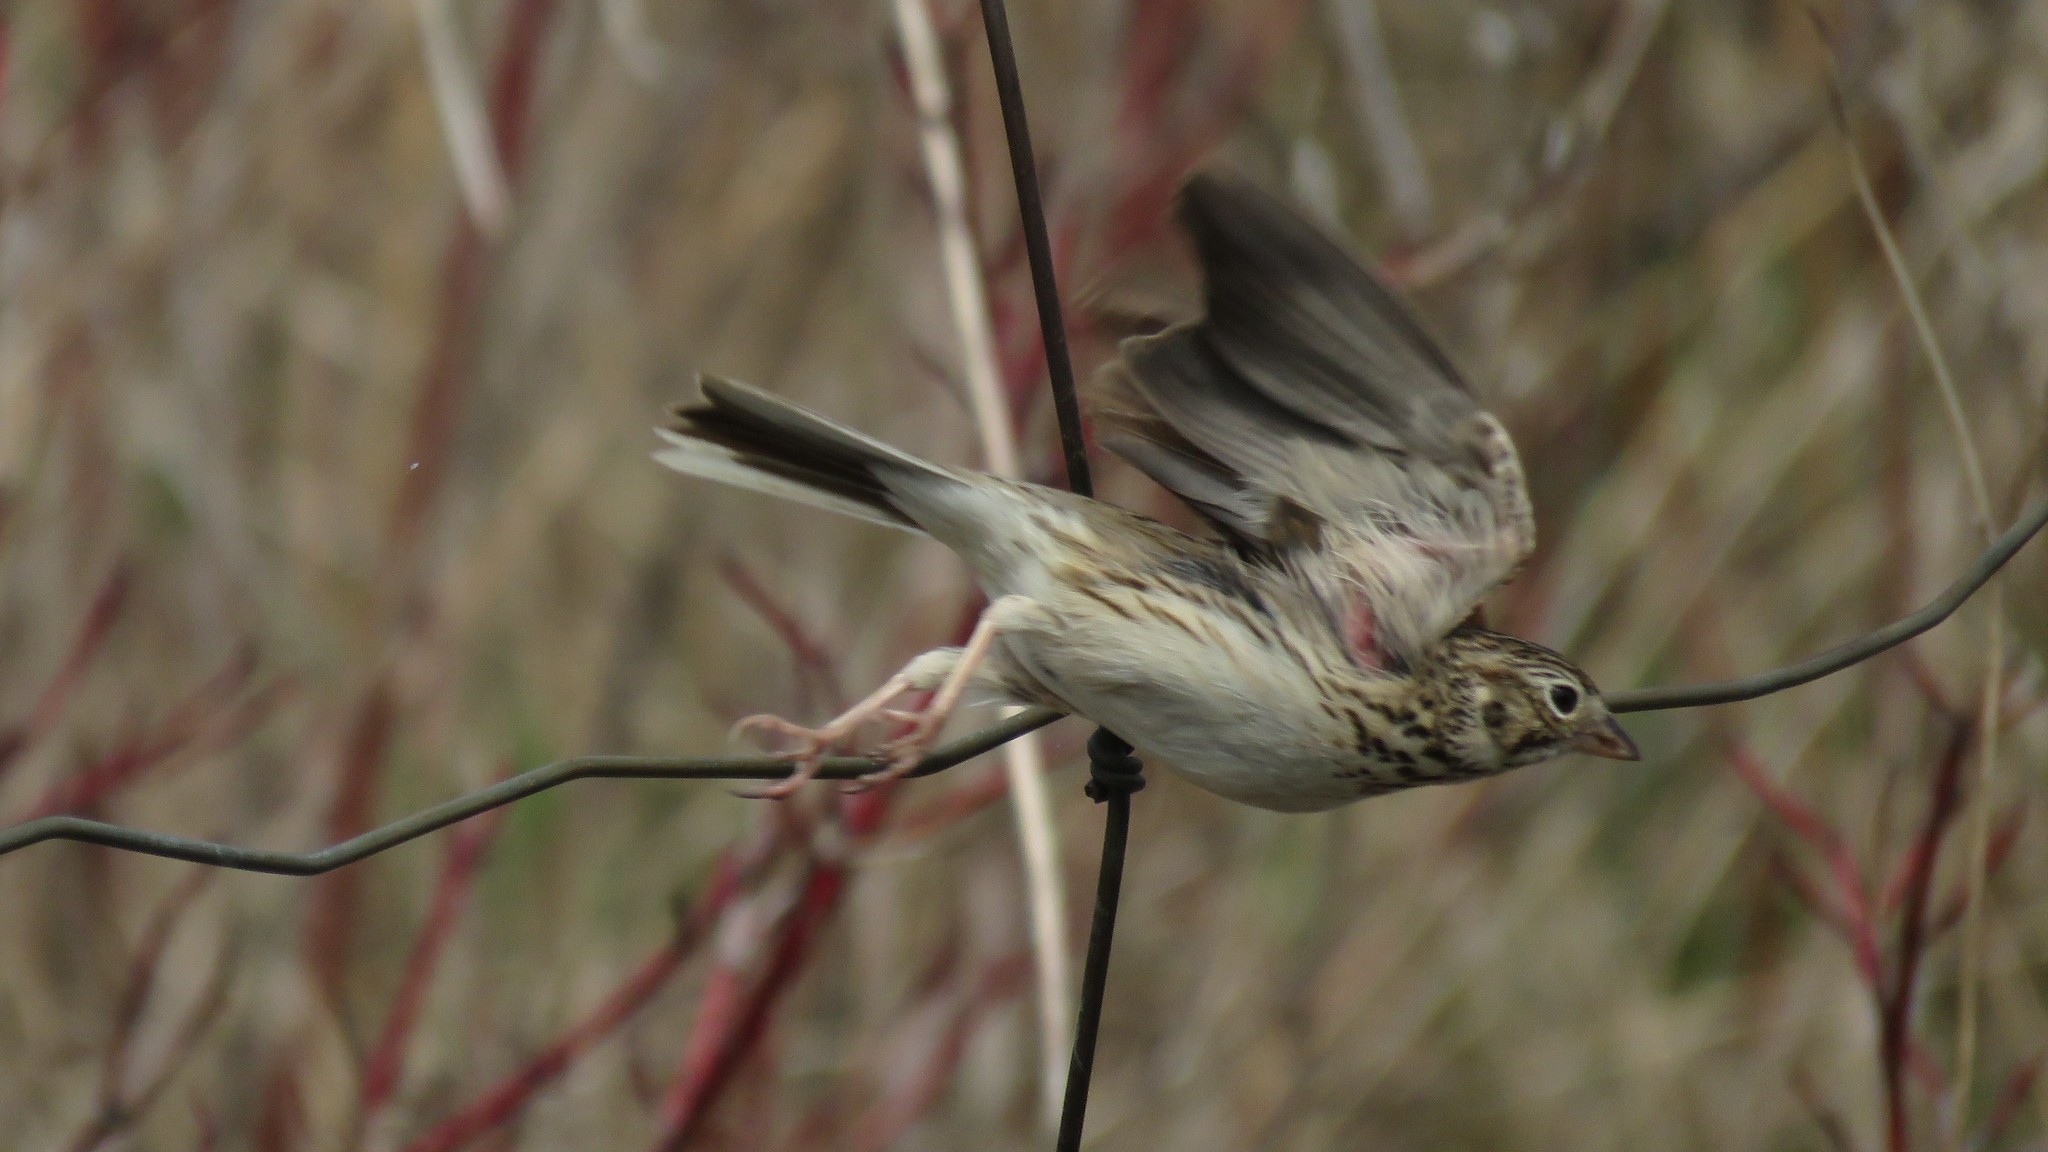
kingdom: Animalia
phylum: Chordata
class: Aves
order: Passeriformes
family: Passerellidae
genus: Pooecetes
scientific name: Pooecetes gramineus
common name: Vesper sparrow
